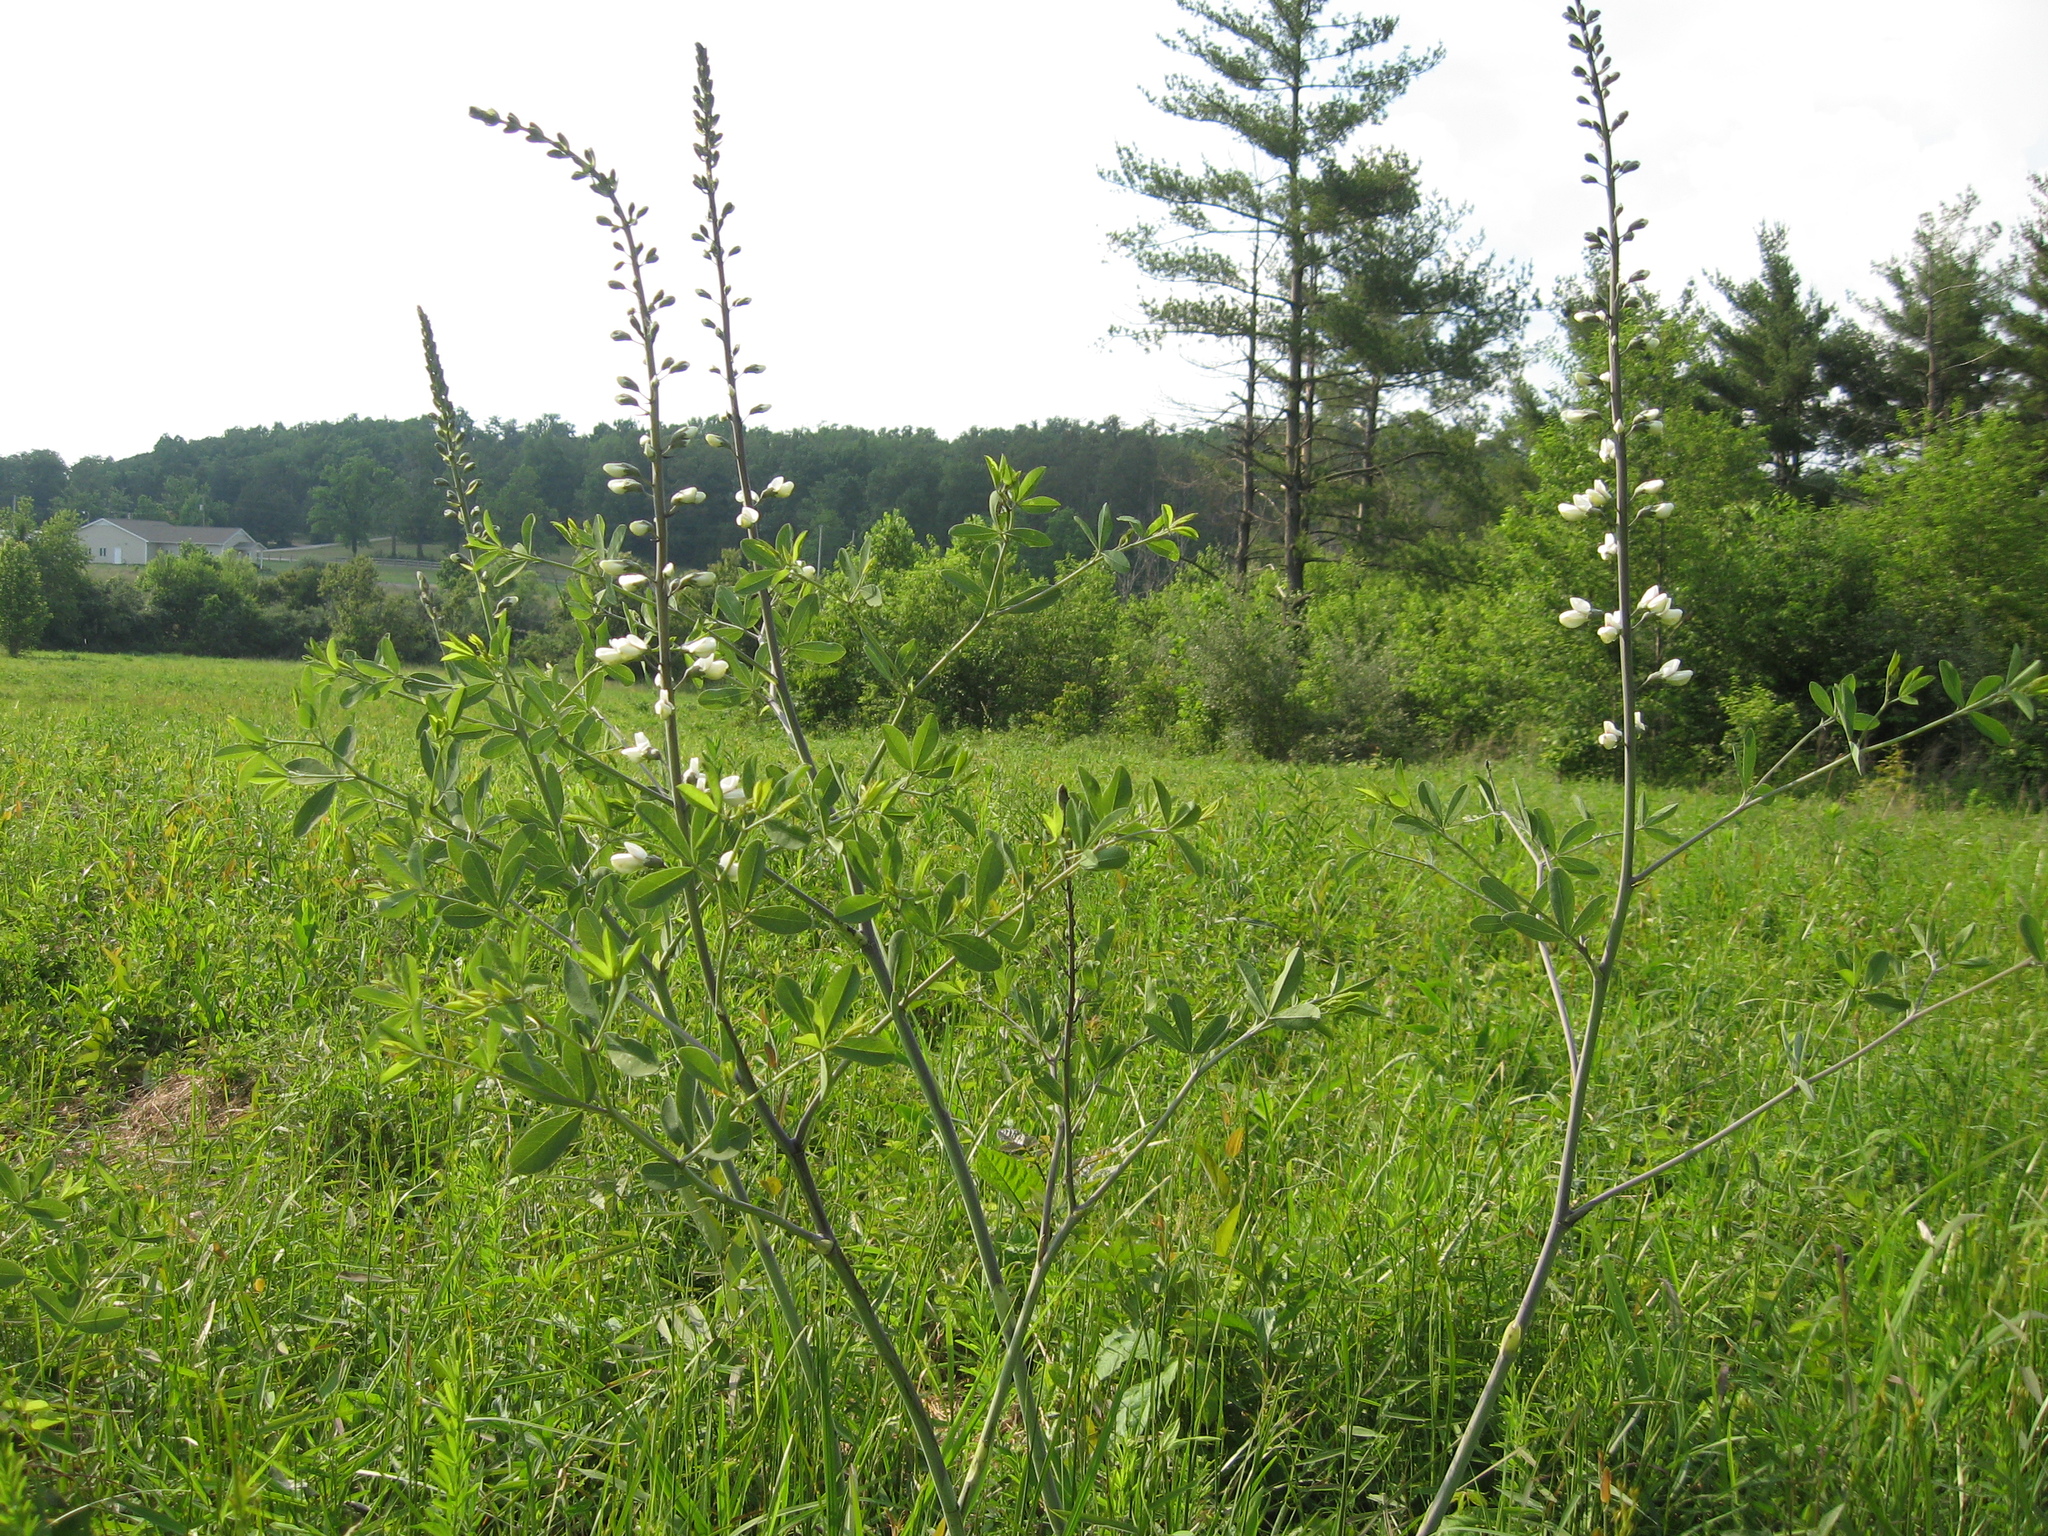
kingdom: Plantae
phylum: Tracheophyta
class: Magnoliopsida
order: Fabales
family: Fabaceae
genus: Baptisia
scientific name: Baptisia alba
